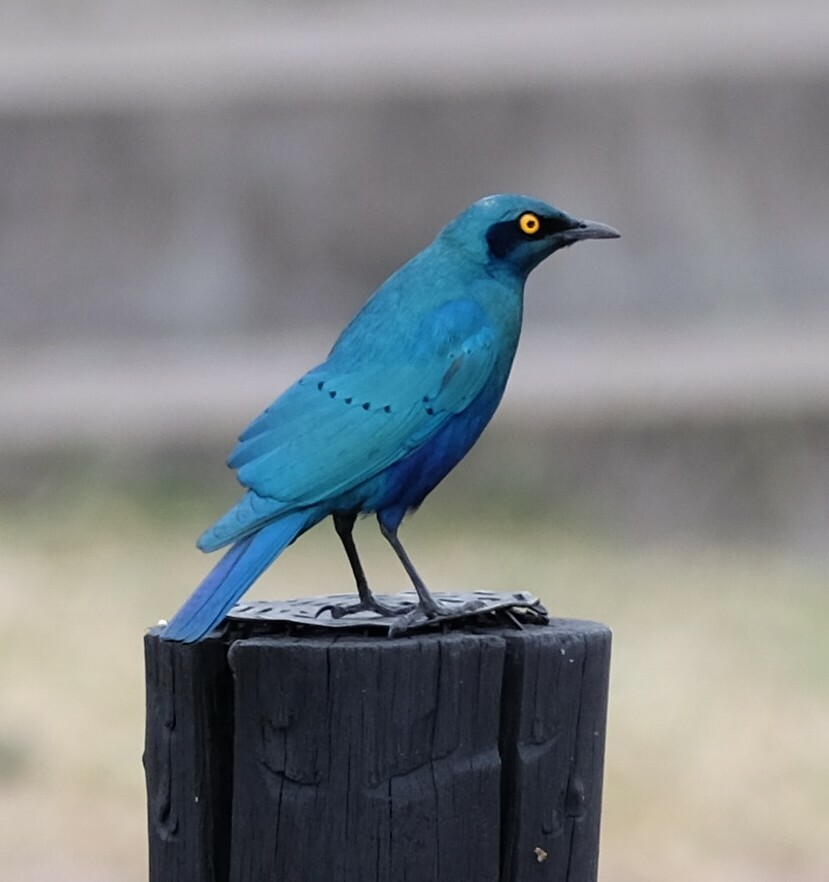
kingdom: Animalia
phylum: Chordata
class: Aves
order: Passeriformes
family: Sturnidae
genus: Lamprotornis
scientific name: Lamprotornis chalybaeus
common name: Greater blue-eared starling
